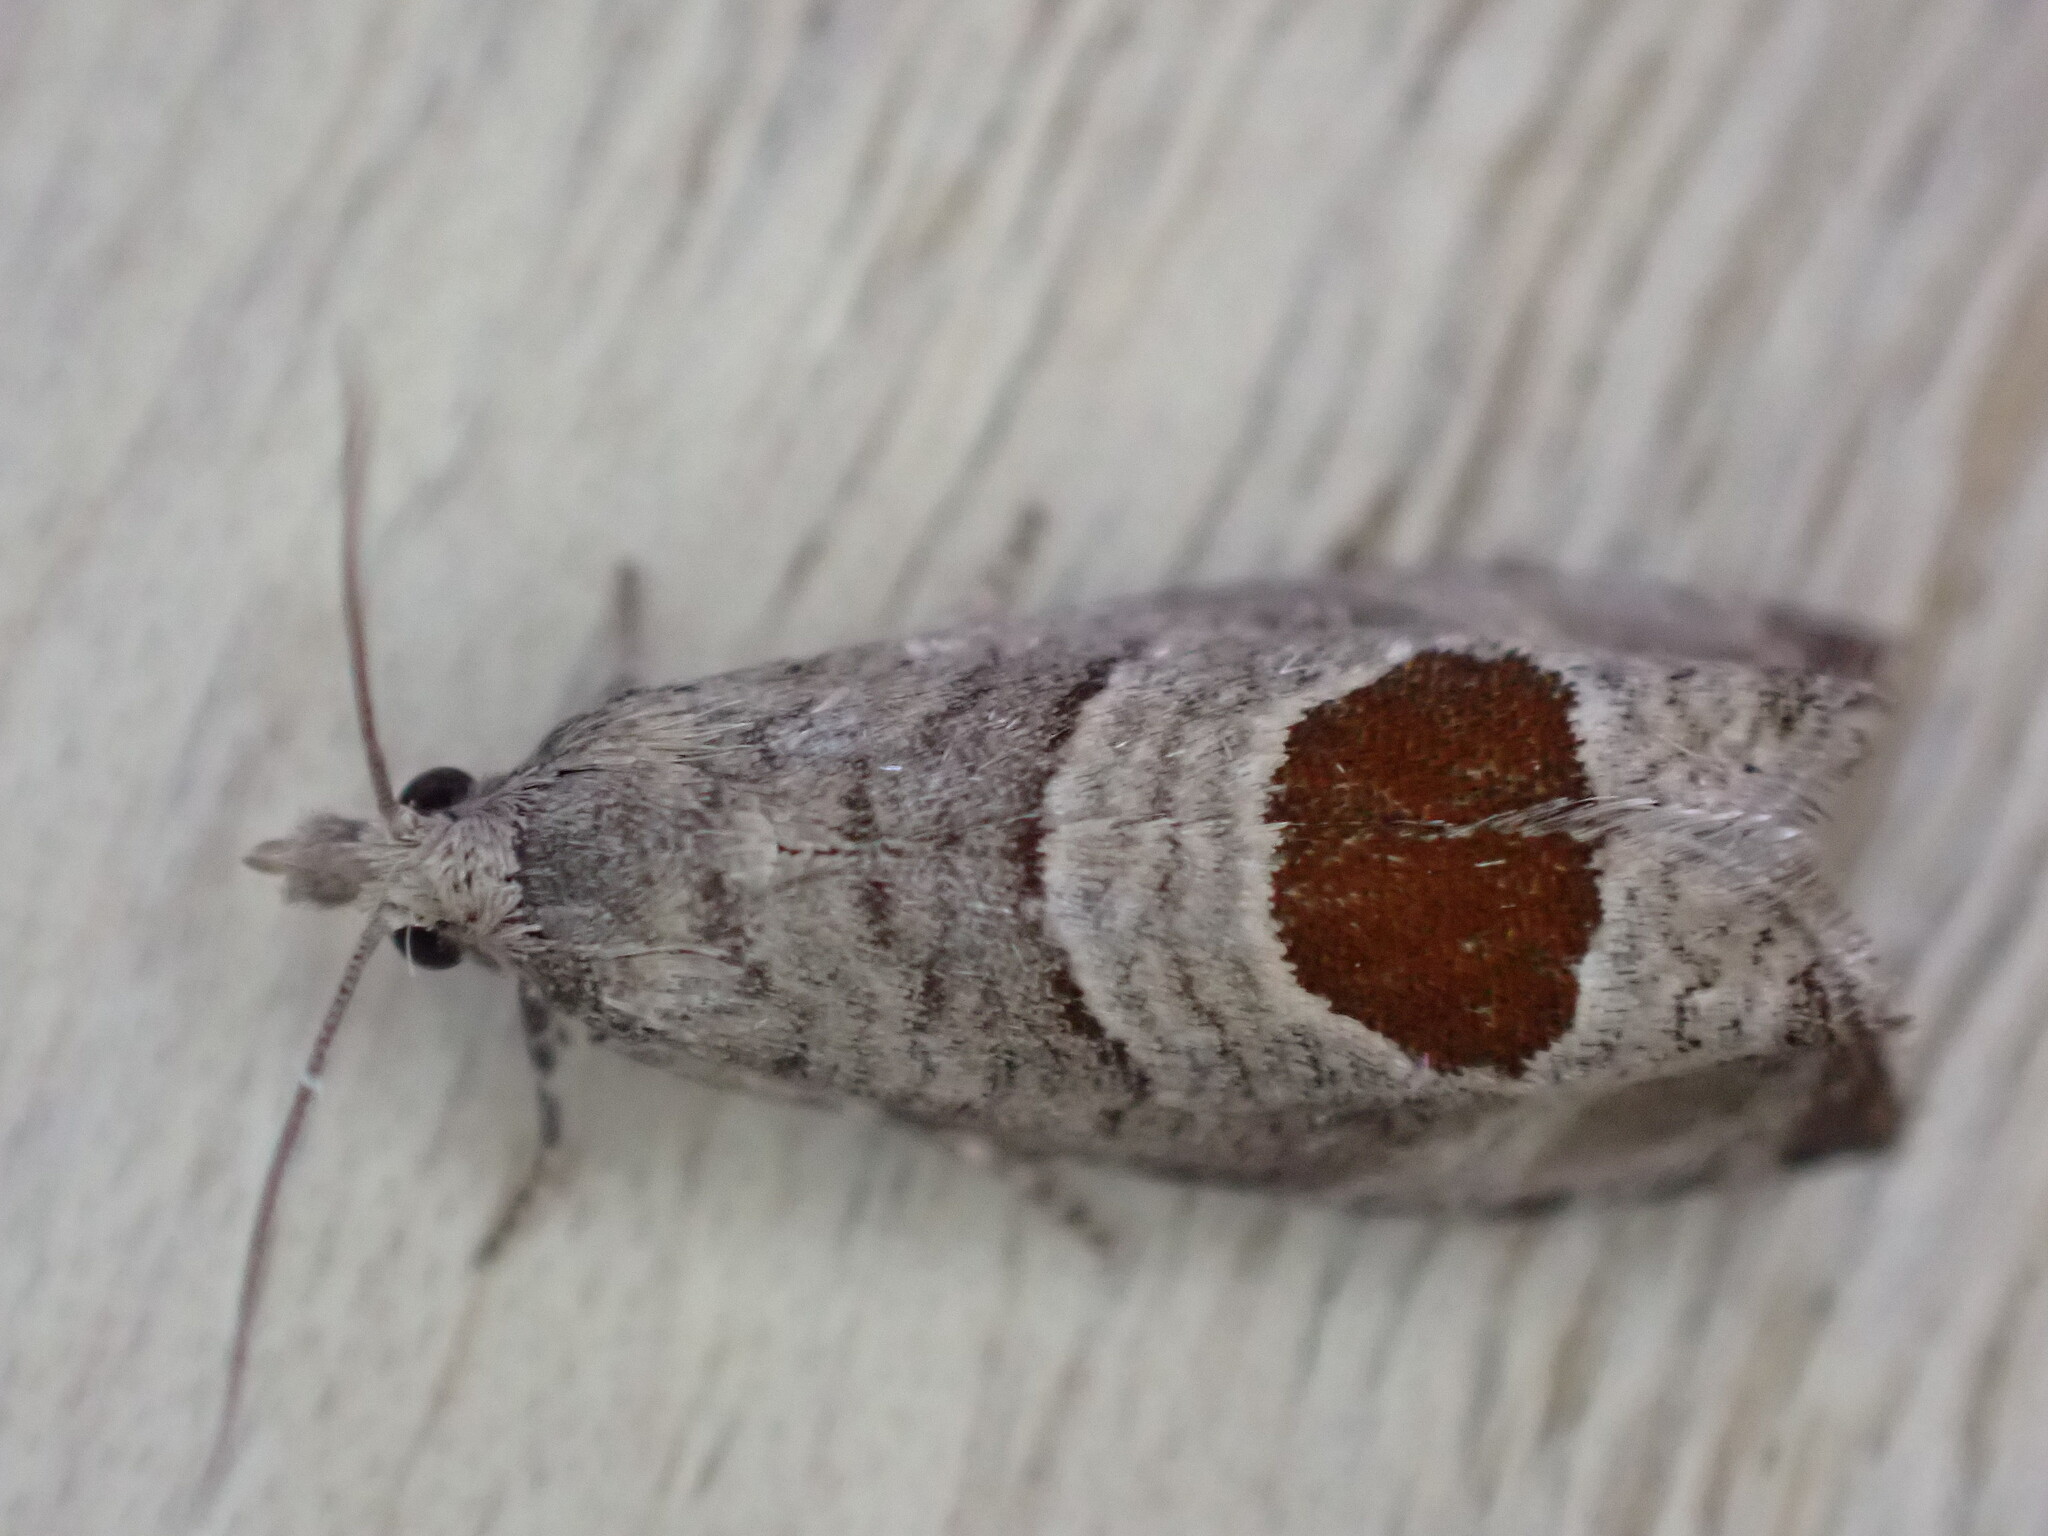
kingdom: Animalia
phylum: Arthropoda
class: Insecta
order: Lepidoptera
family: Tortricidae
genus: Notocelia
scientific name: Notocelia uddmanniana
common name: Bramble shoot moth
